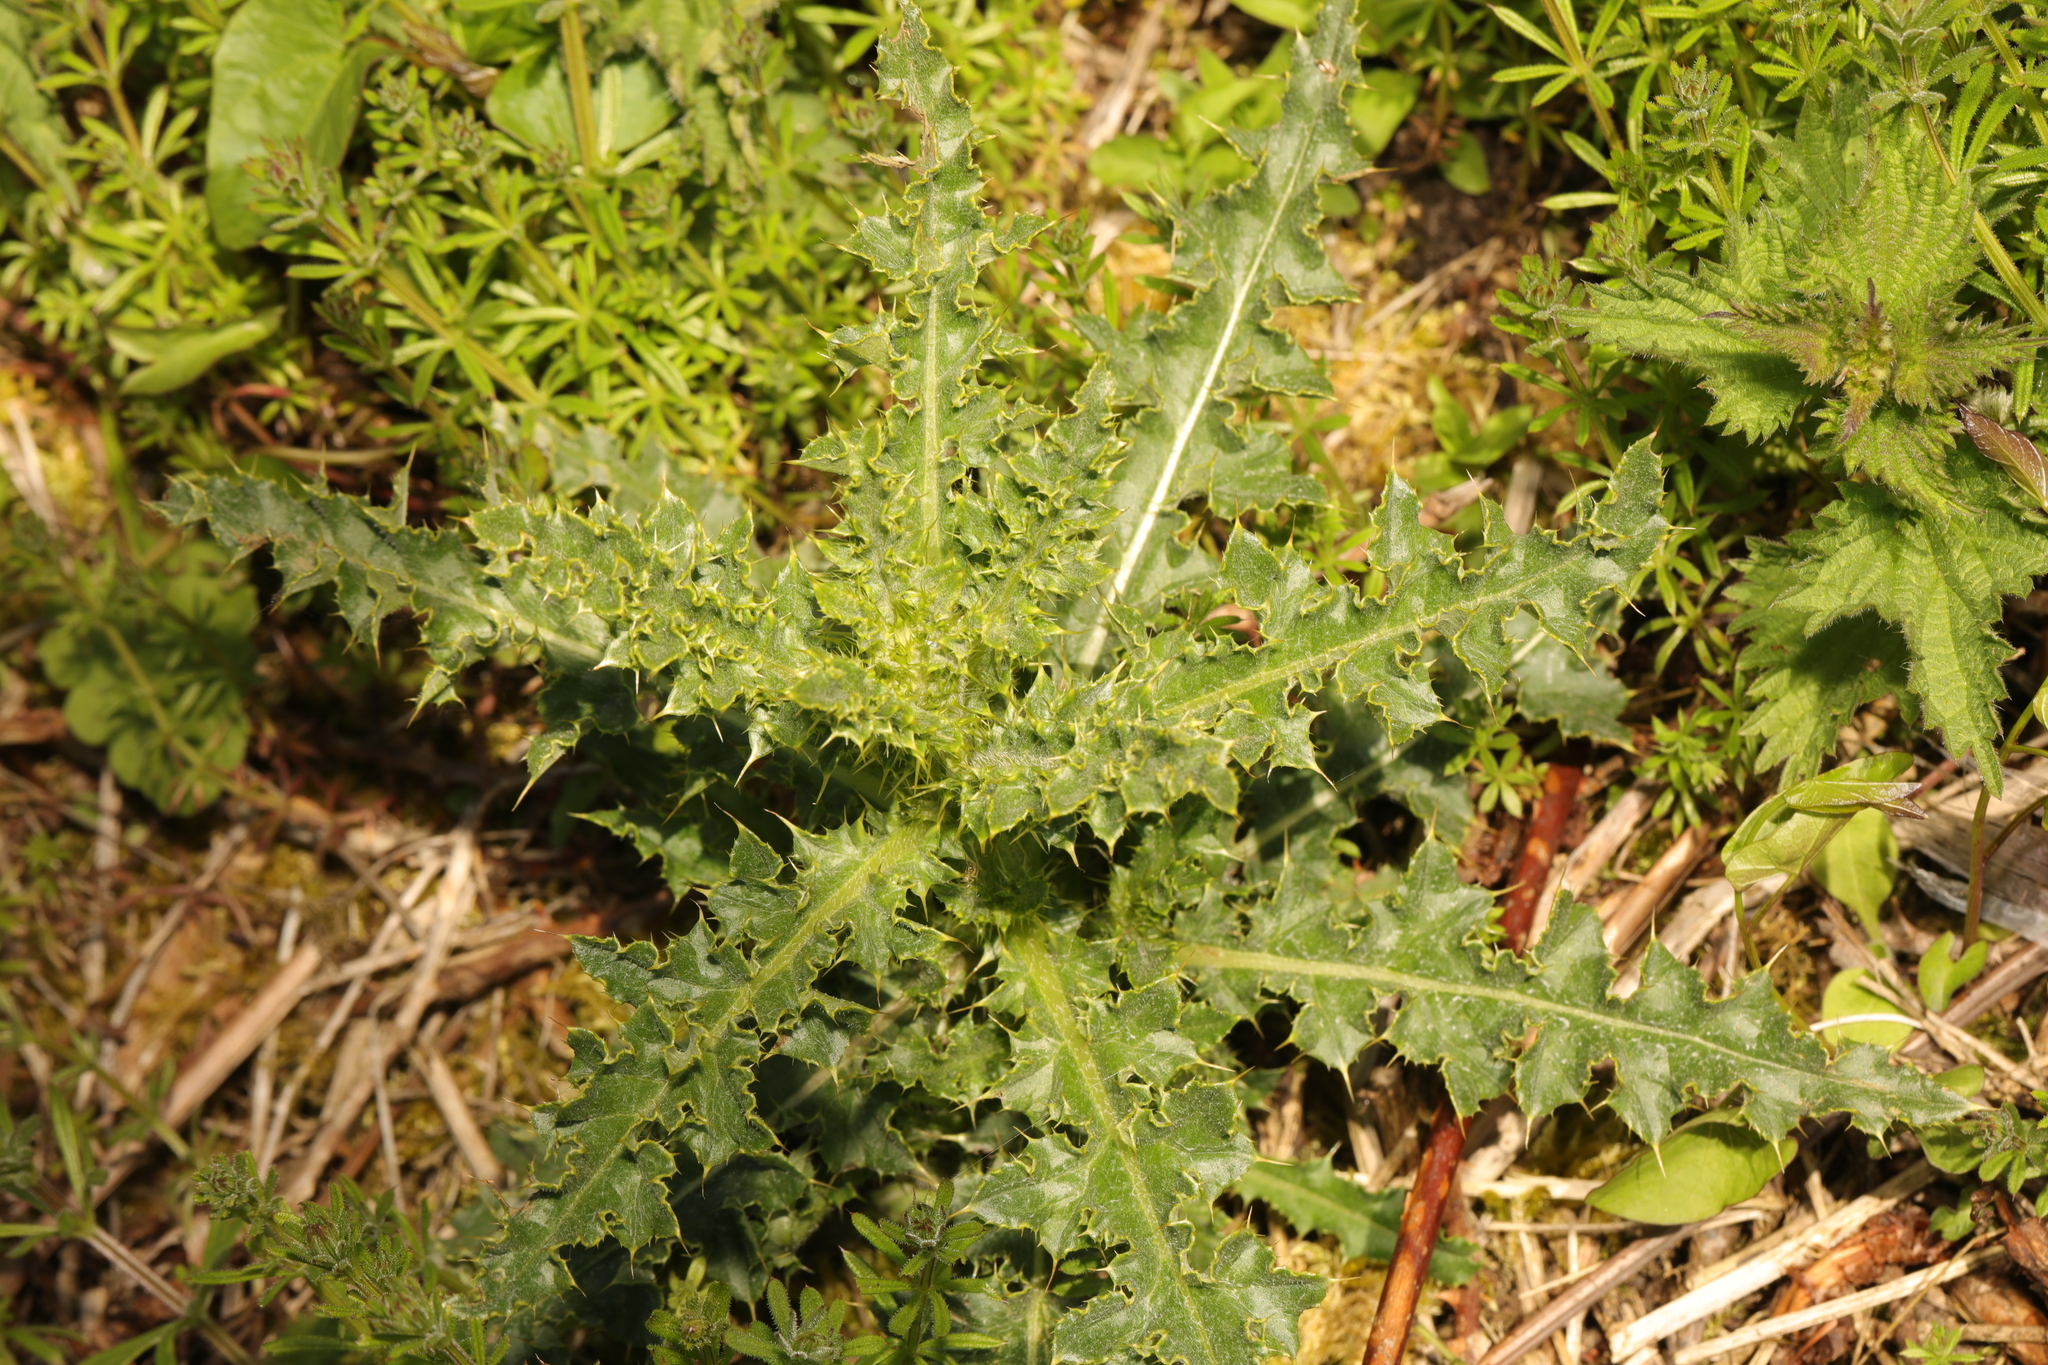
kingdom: Plantae
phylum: Tracheophyta
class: Magnoliopsida
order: Asterales
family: Asteraceae
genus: Cirsium
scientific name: Cirsium arvense
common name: Creeping thistle
